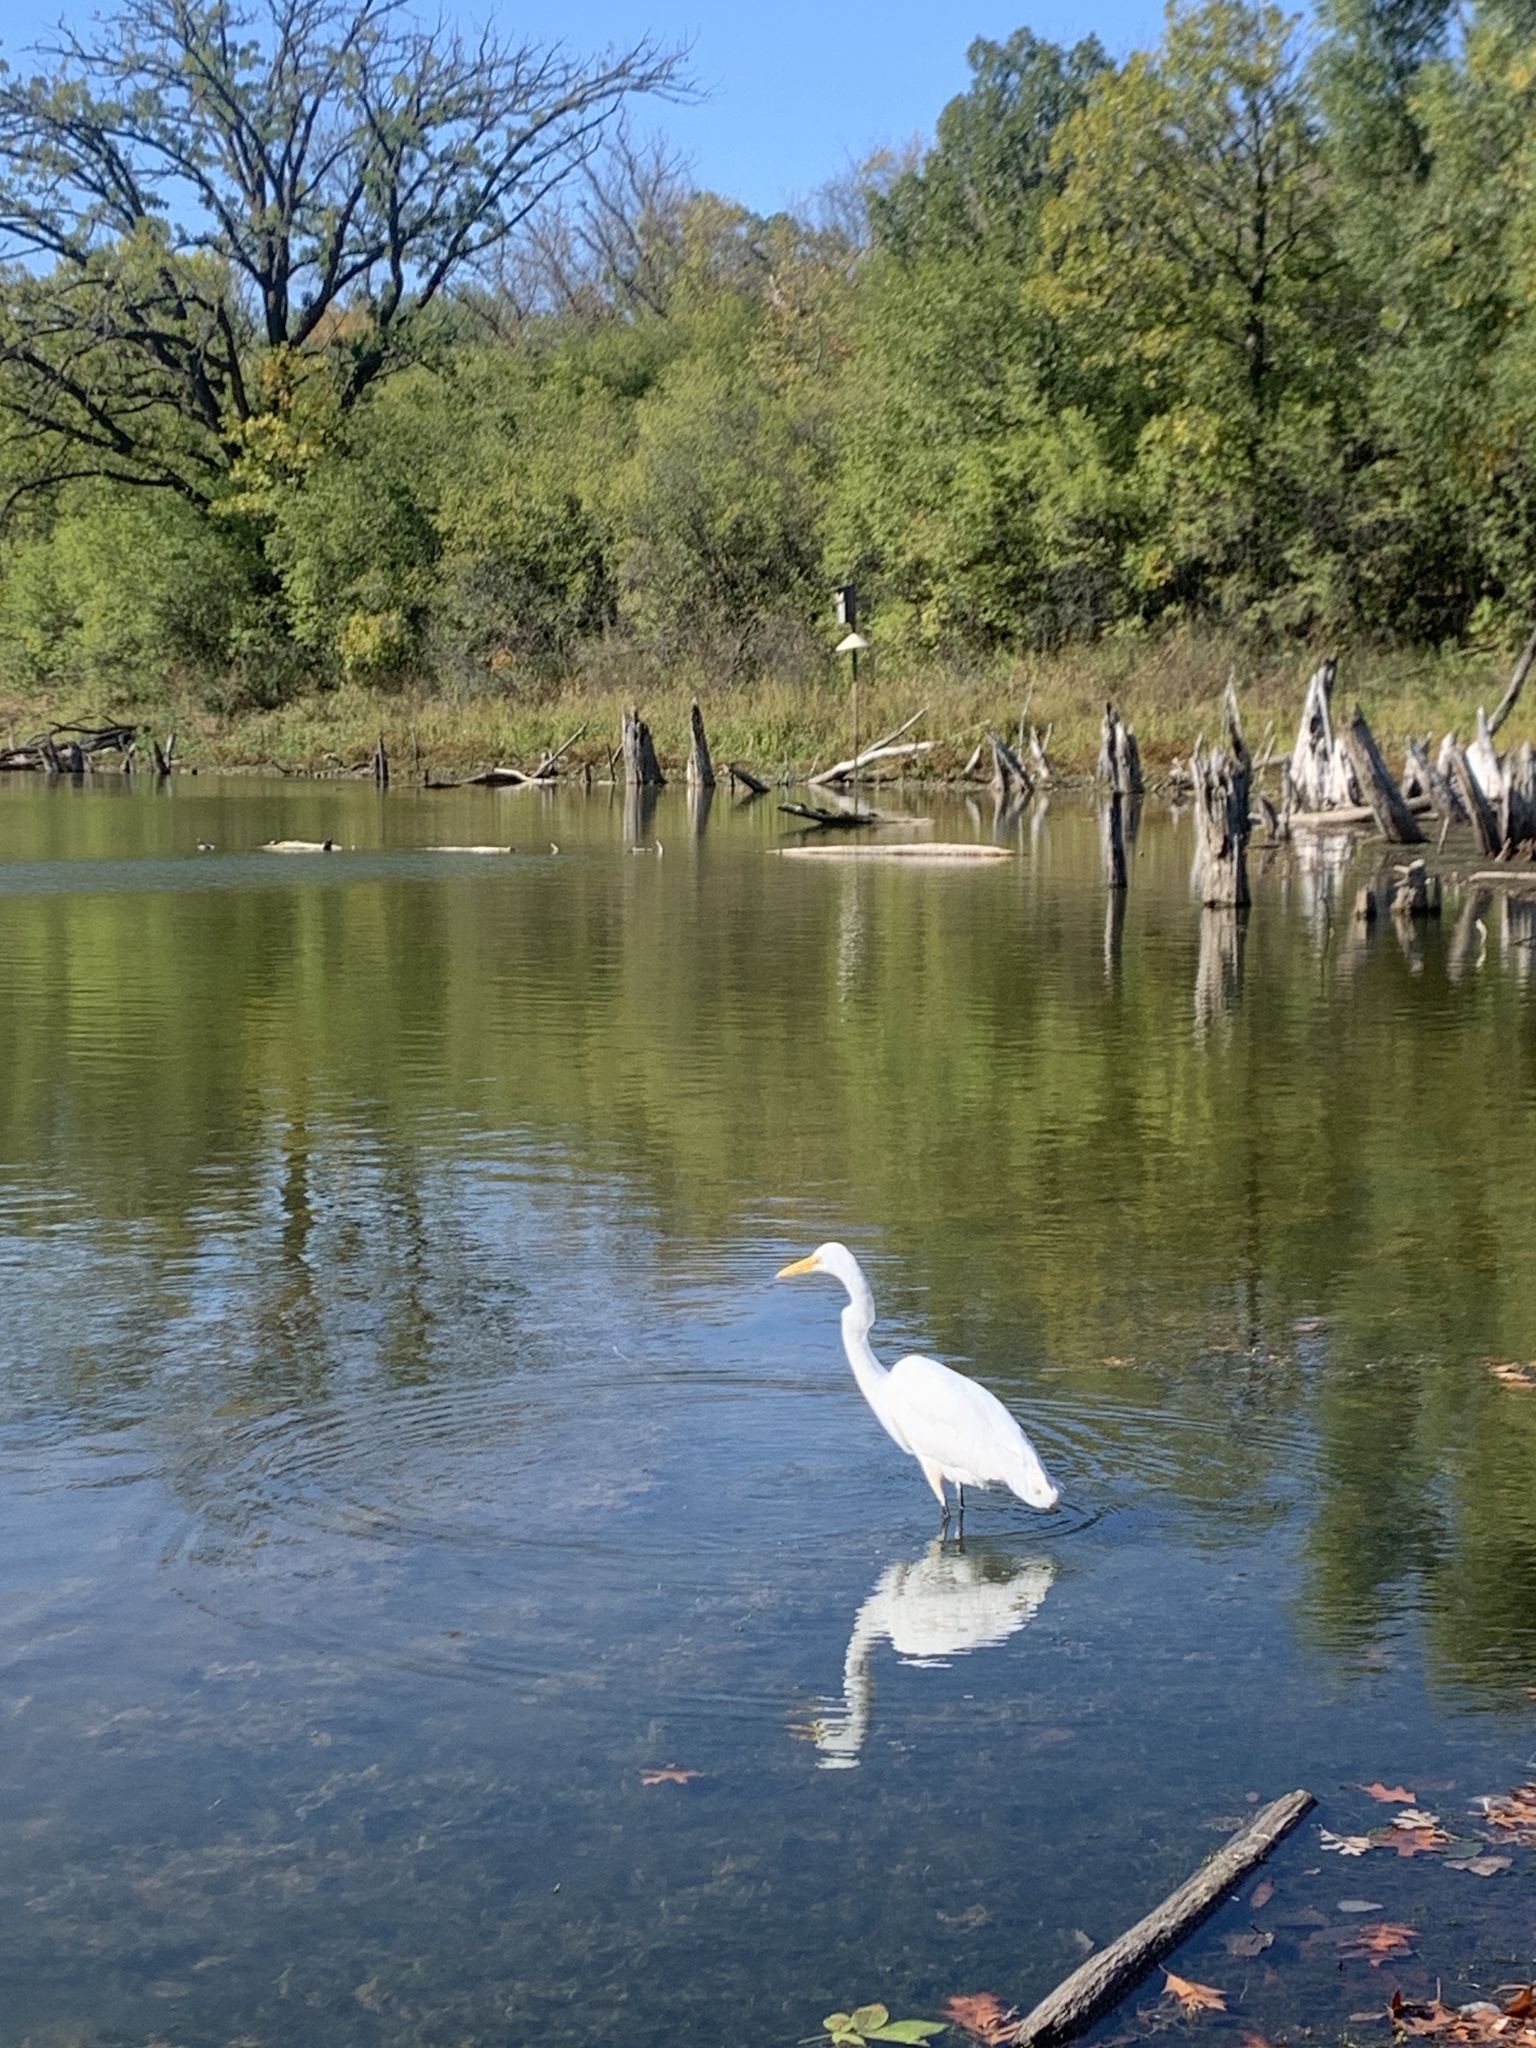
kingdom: Animalia
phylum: Chordata
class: Aves
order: Pelecaniformes
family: Ardeidae
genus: Ardea
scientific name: Ardea alba
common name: Great egret
